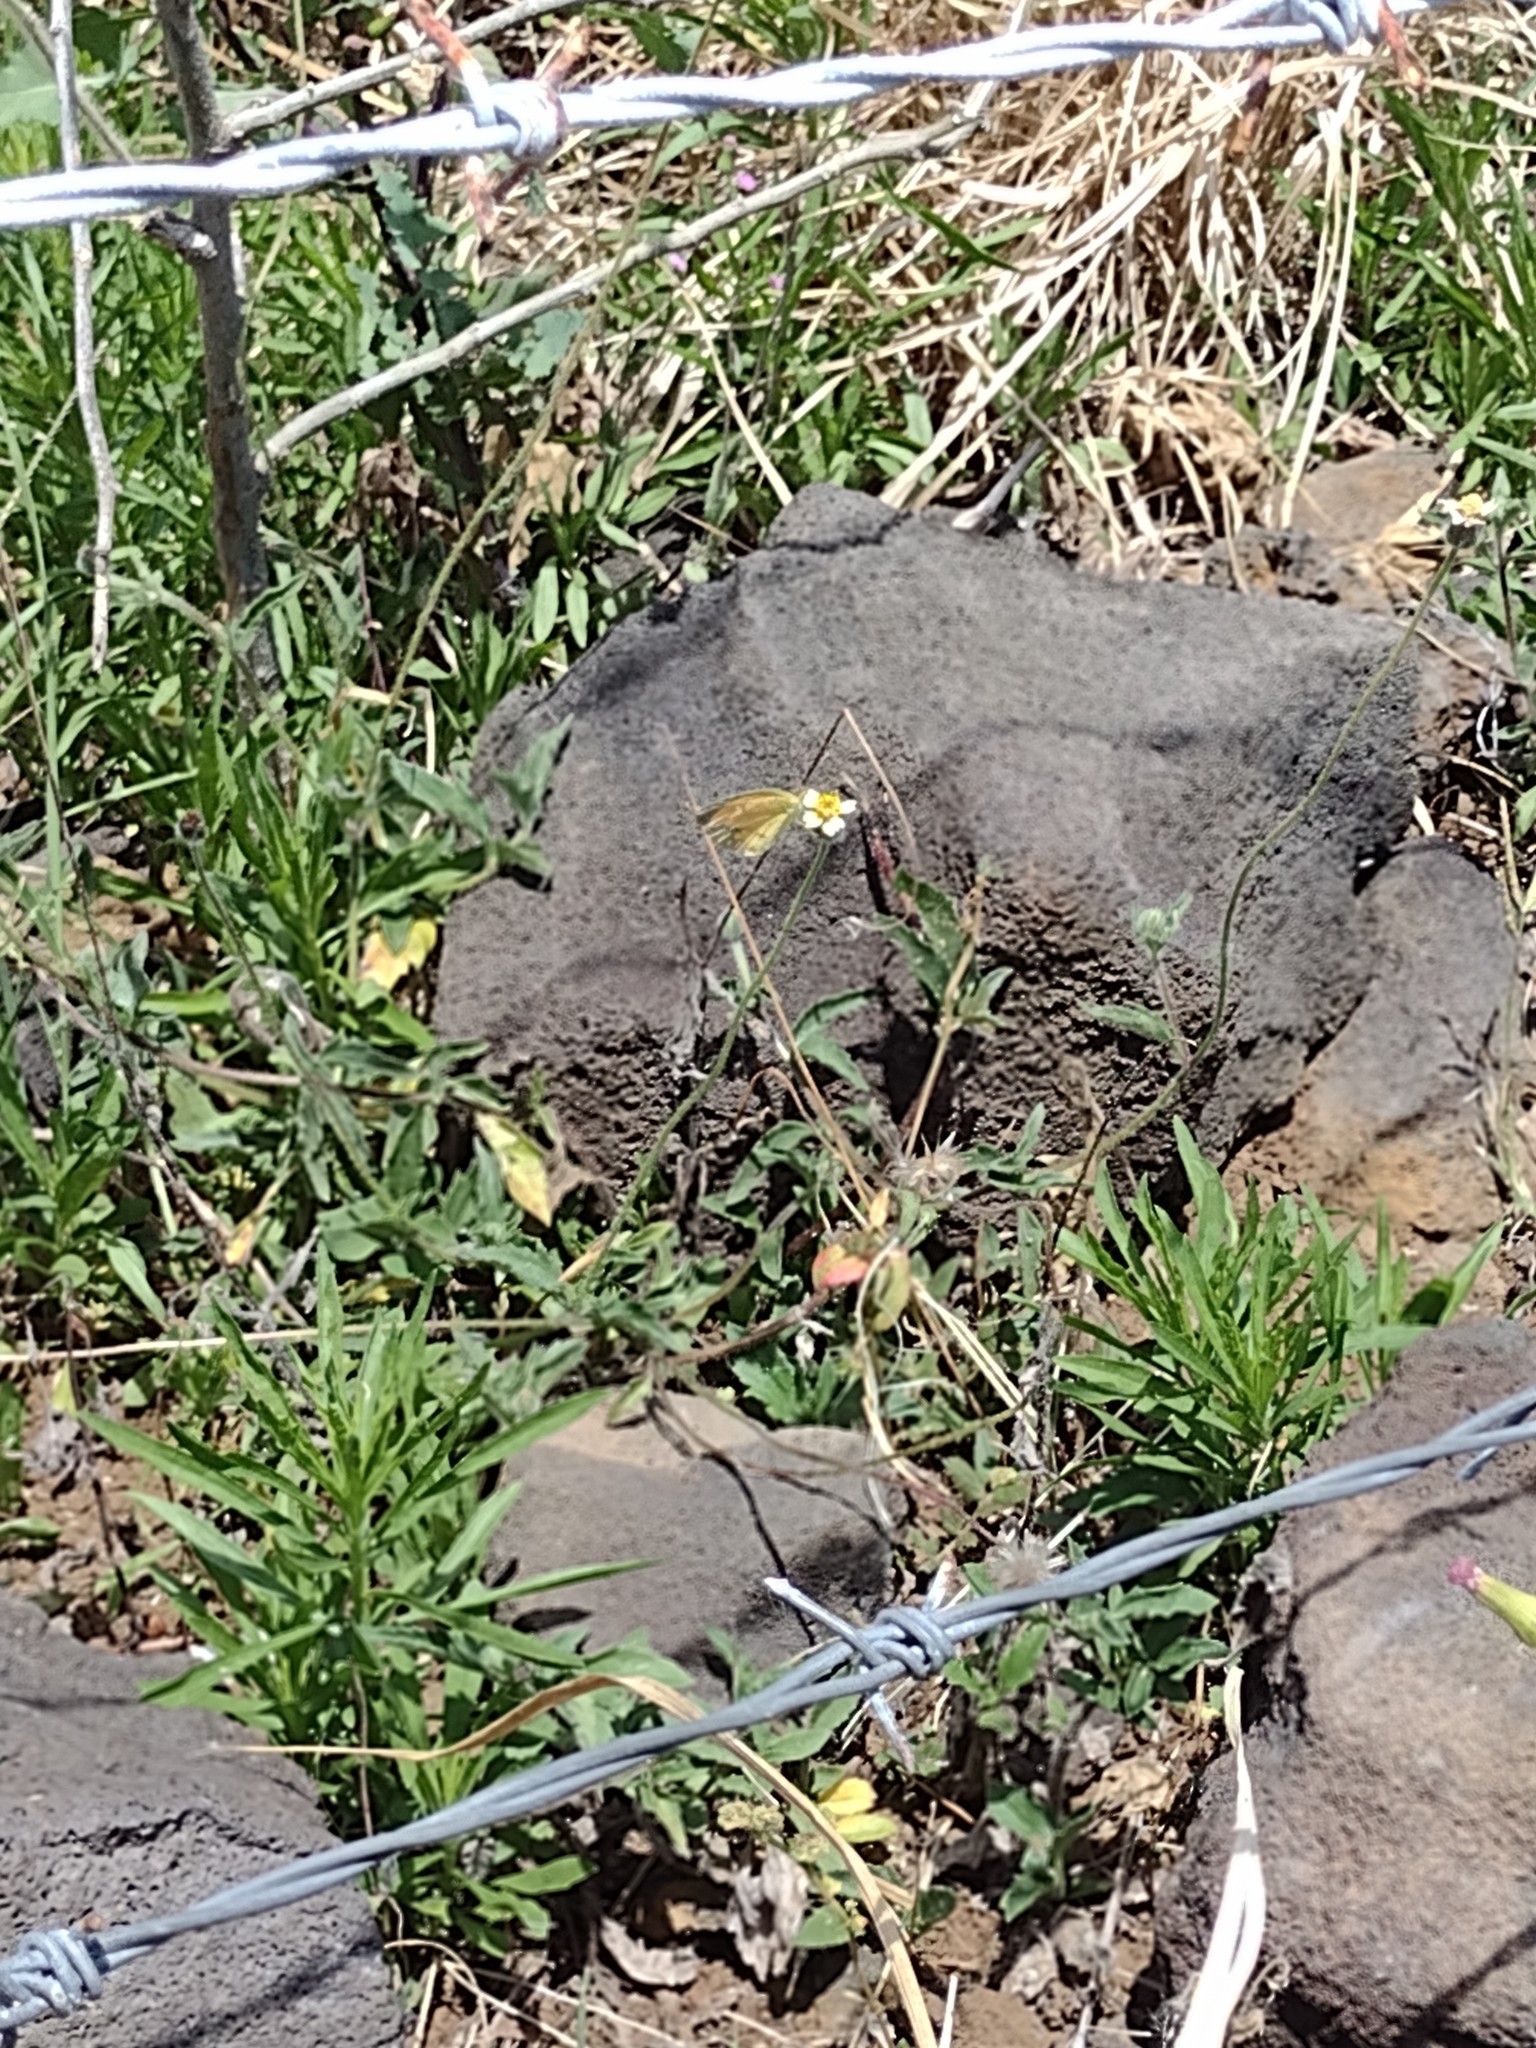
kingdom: Animalia
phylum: Arthropoda
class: Insecta
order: Lepidoptera
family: Pieridae
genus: Abaeis
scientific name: Abaeis nicippe
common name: Sleepy orange
